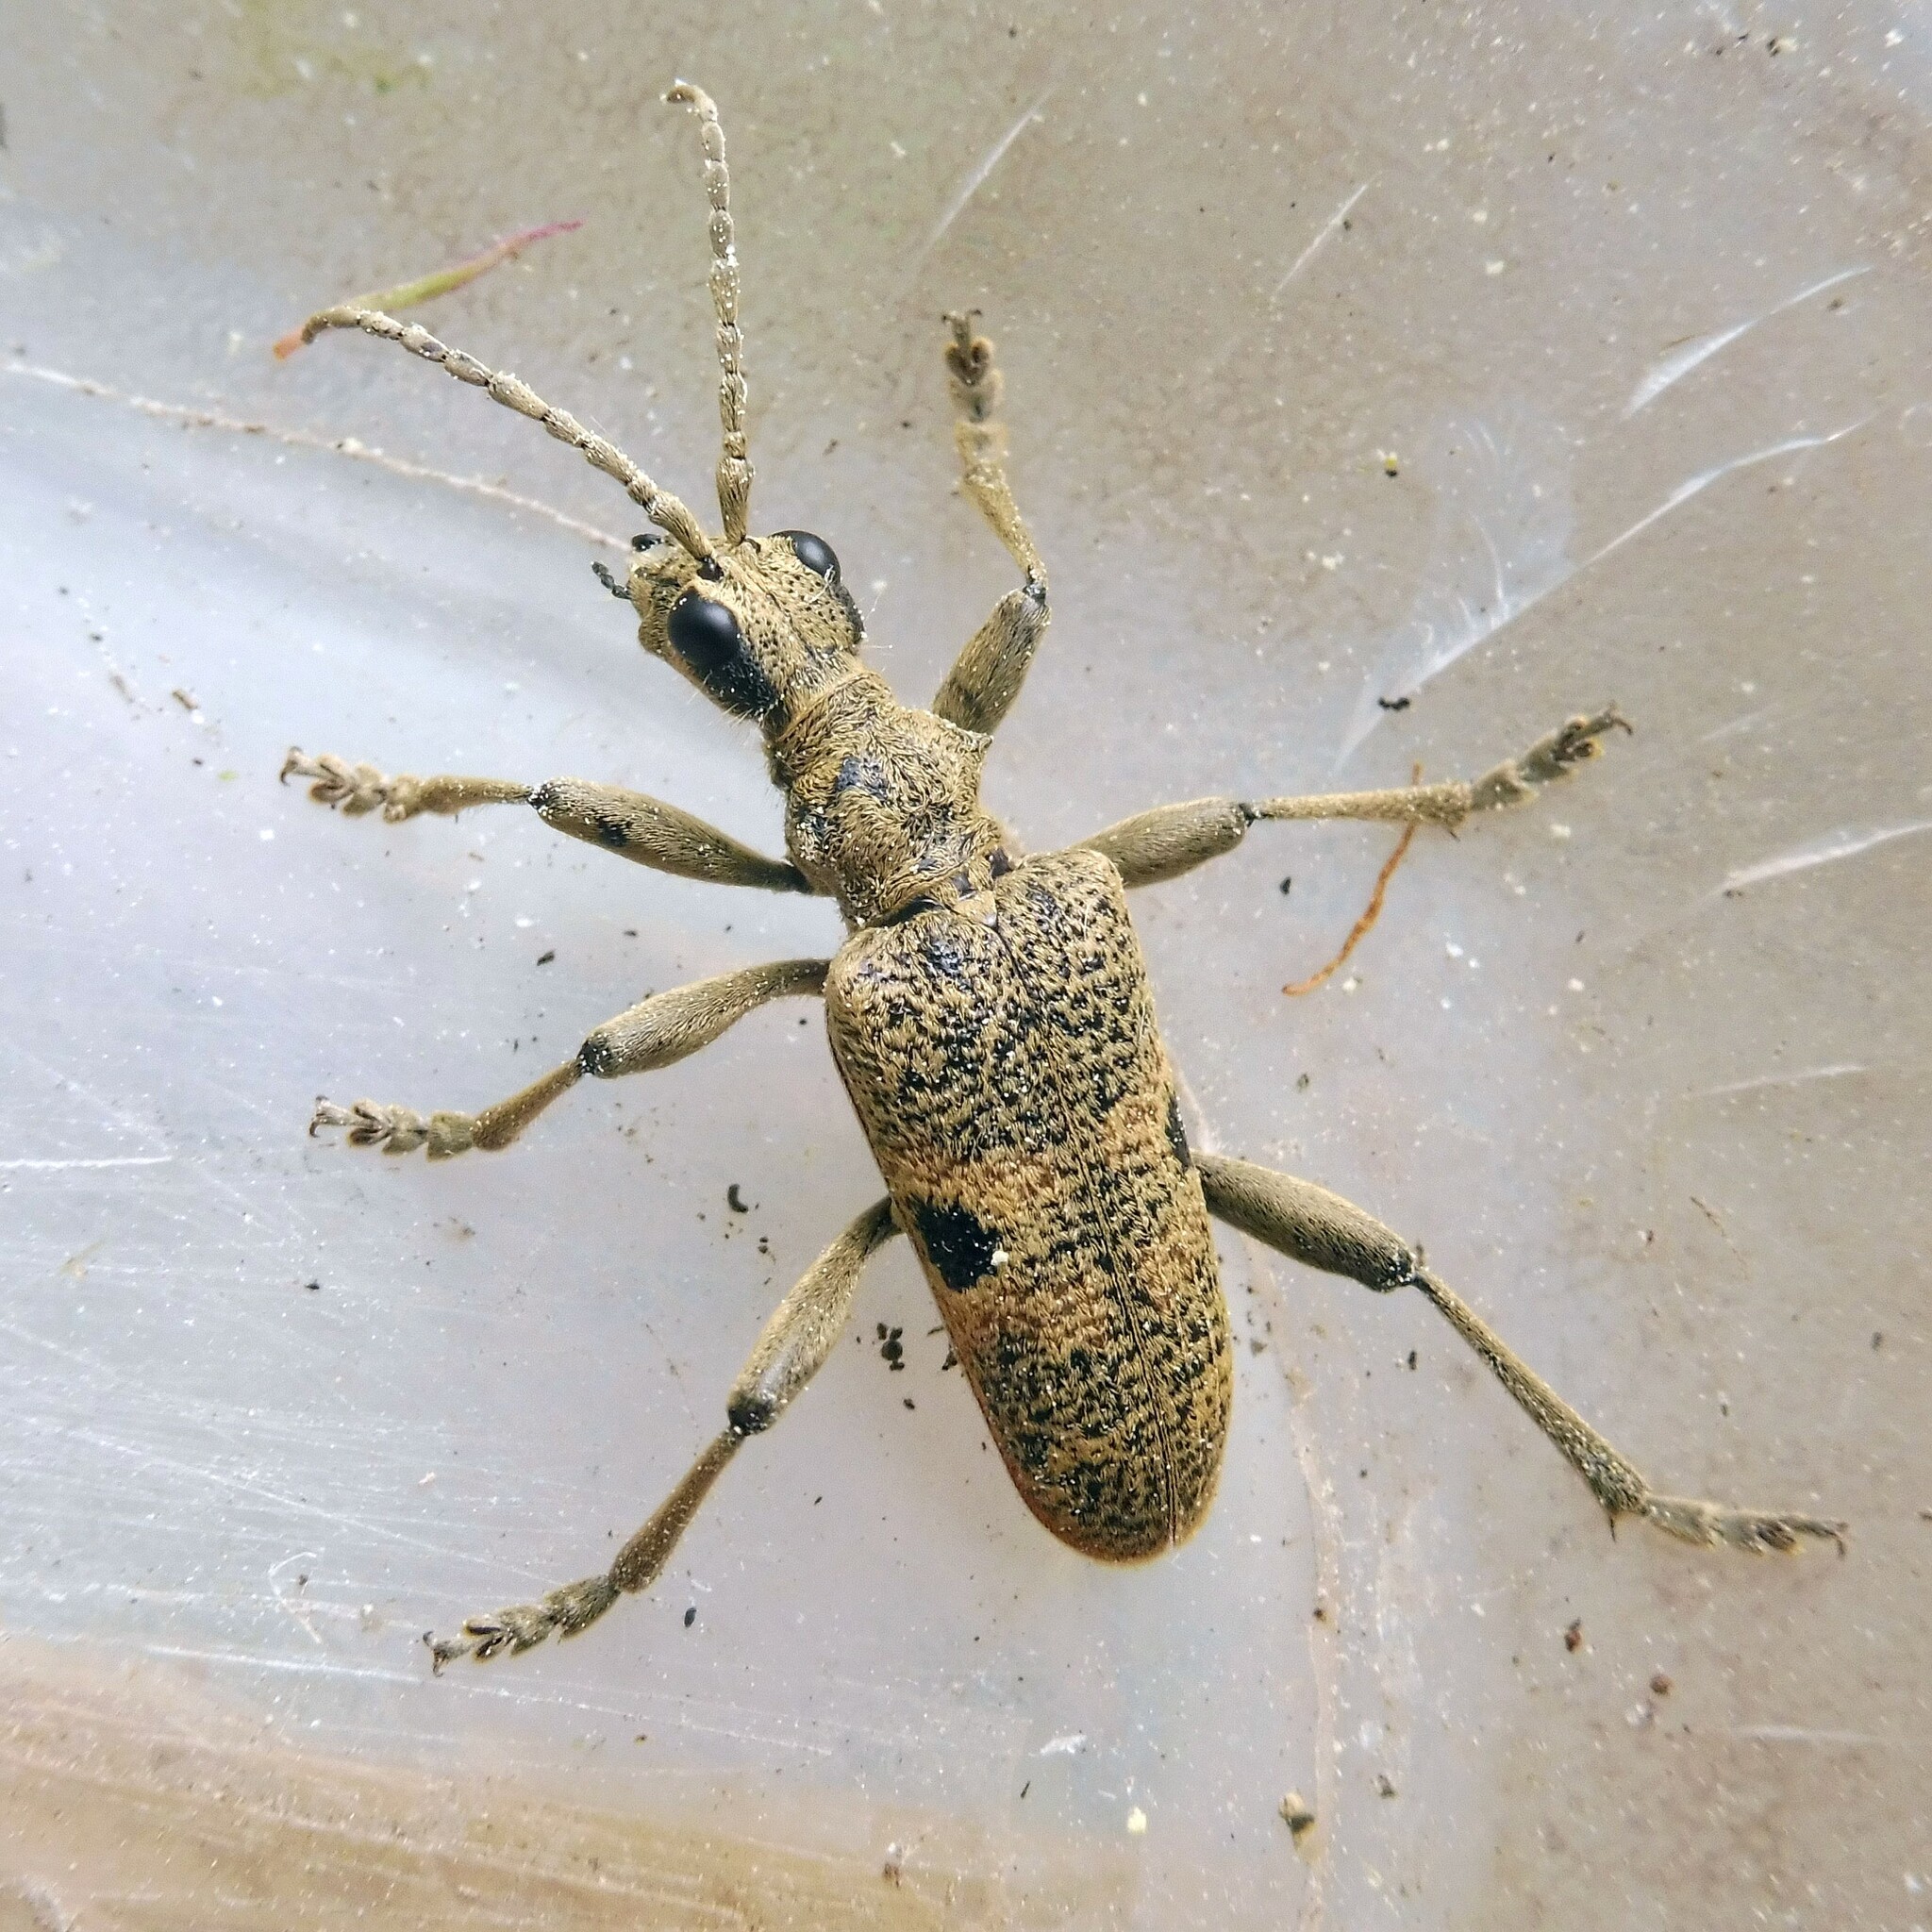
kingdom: Animalia
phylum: Arthropoda
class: Insecta
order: Coleoptera
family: Cerambycidae
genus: Rhagium
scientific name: Rhagium mordax
